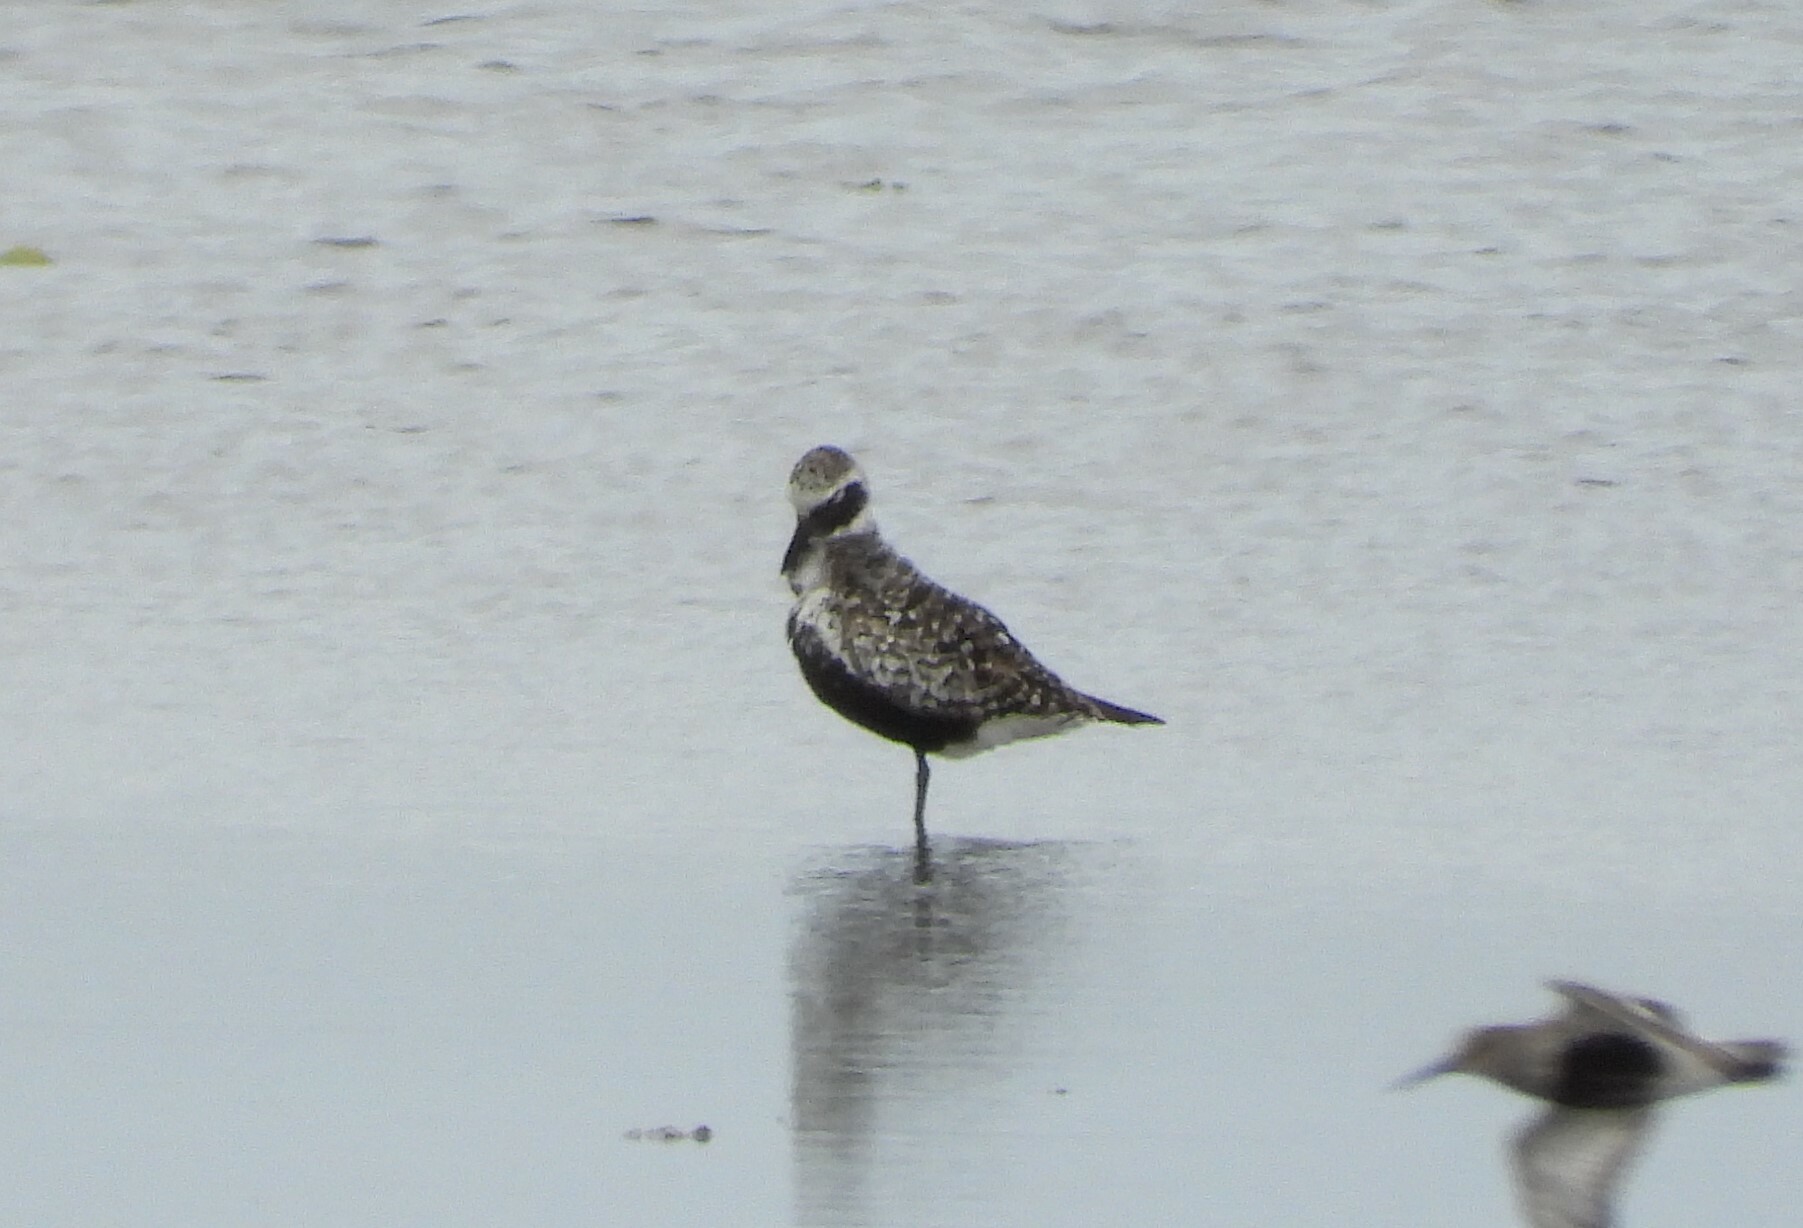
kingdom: Animalia
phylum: Chordata
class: Aves
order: Charadriiformes
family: Charadriidae
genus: Pluvialis
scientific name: Pluvialis squatarola
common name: Grey plover
